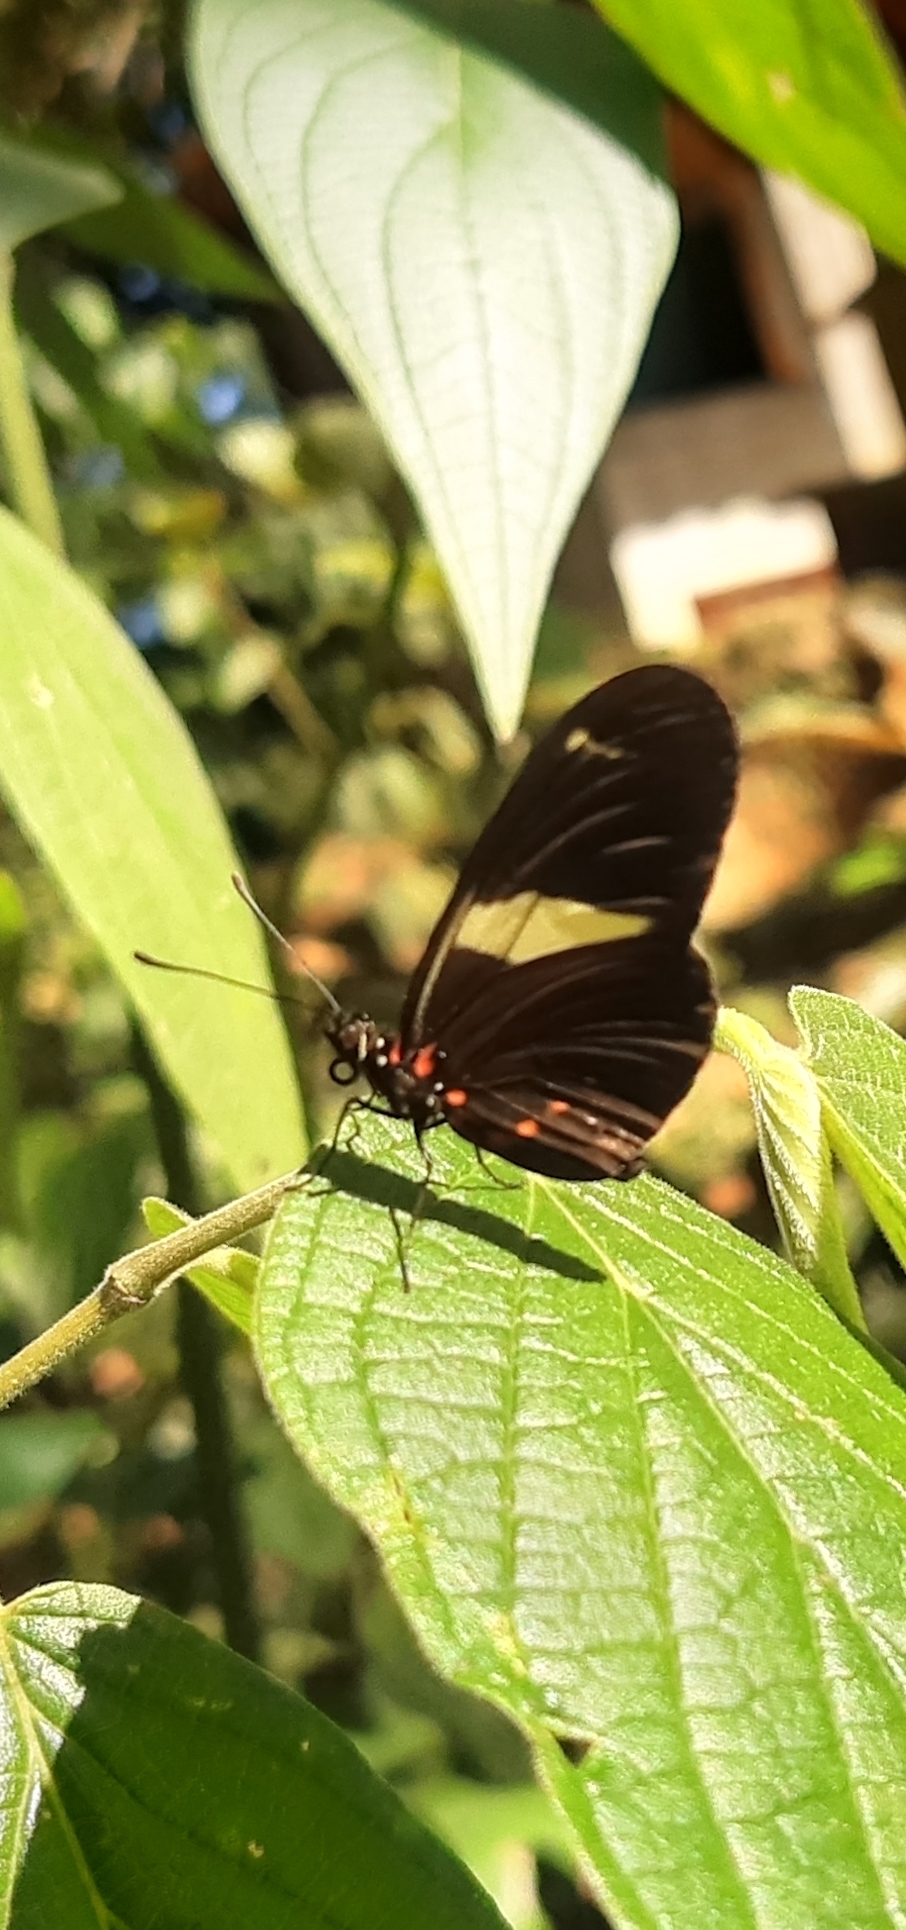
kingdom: Animalia
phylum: Arthropoda
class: Insecta
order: Lepidoptera
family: Nymphalidae
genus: Heliconius
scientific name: Heliconius sara
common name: Sara longwing
